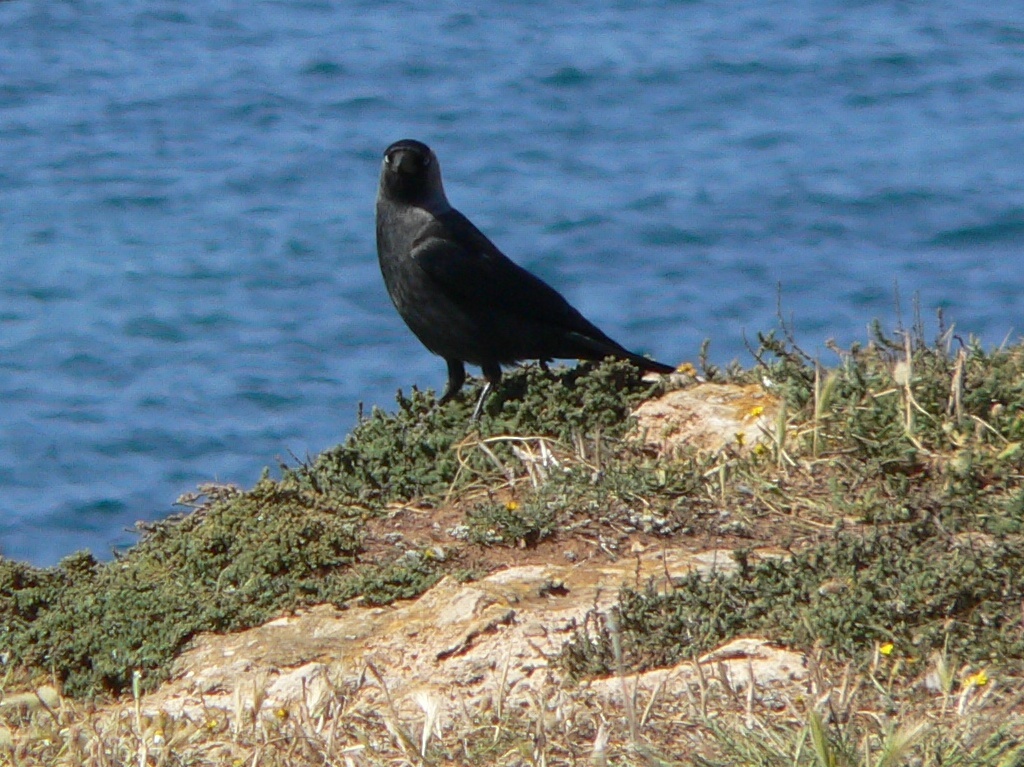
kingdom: Animalia
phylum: Chordata
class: Aves
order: Passeriformes
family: Corvidae
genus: Coloeus
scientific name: Coloeus monedula
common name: Western jackdaw
